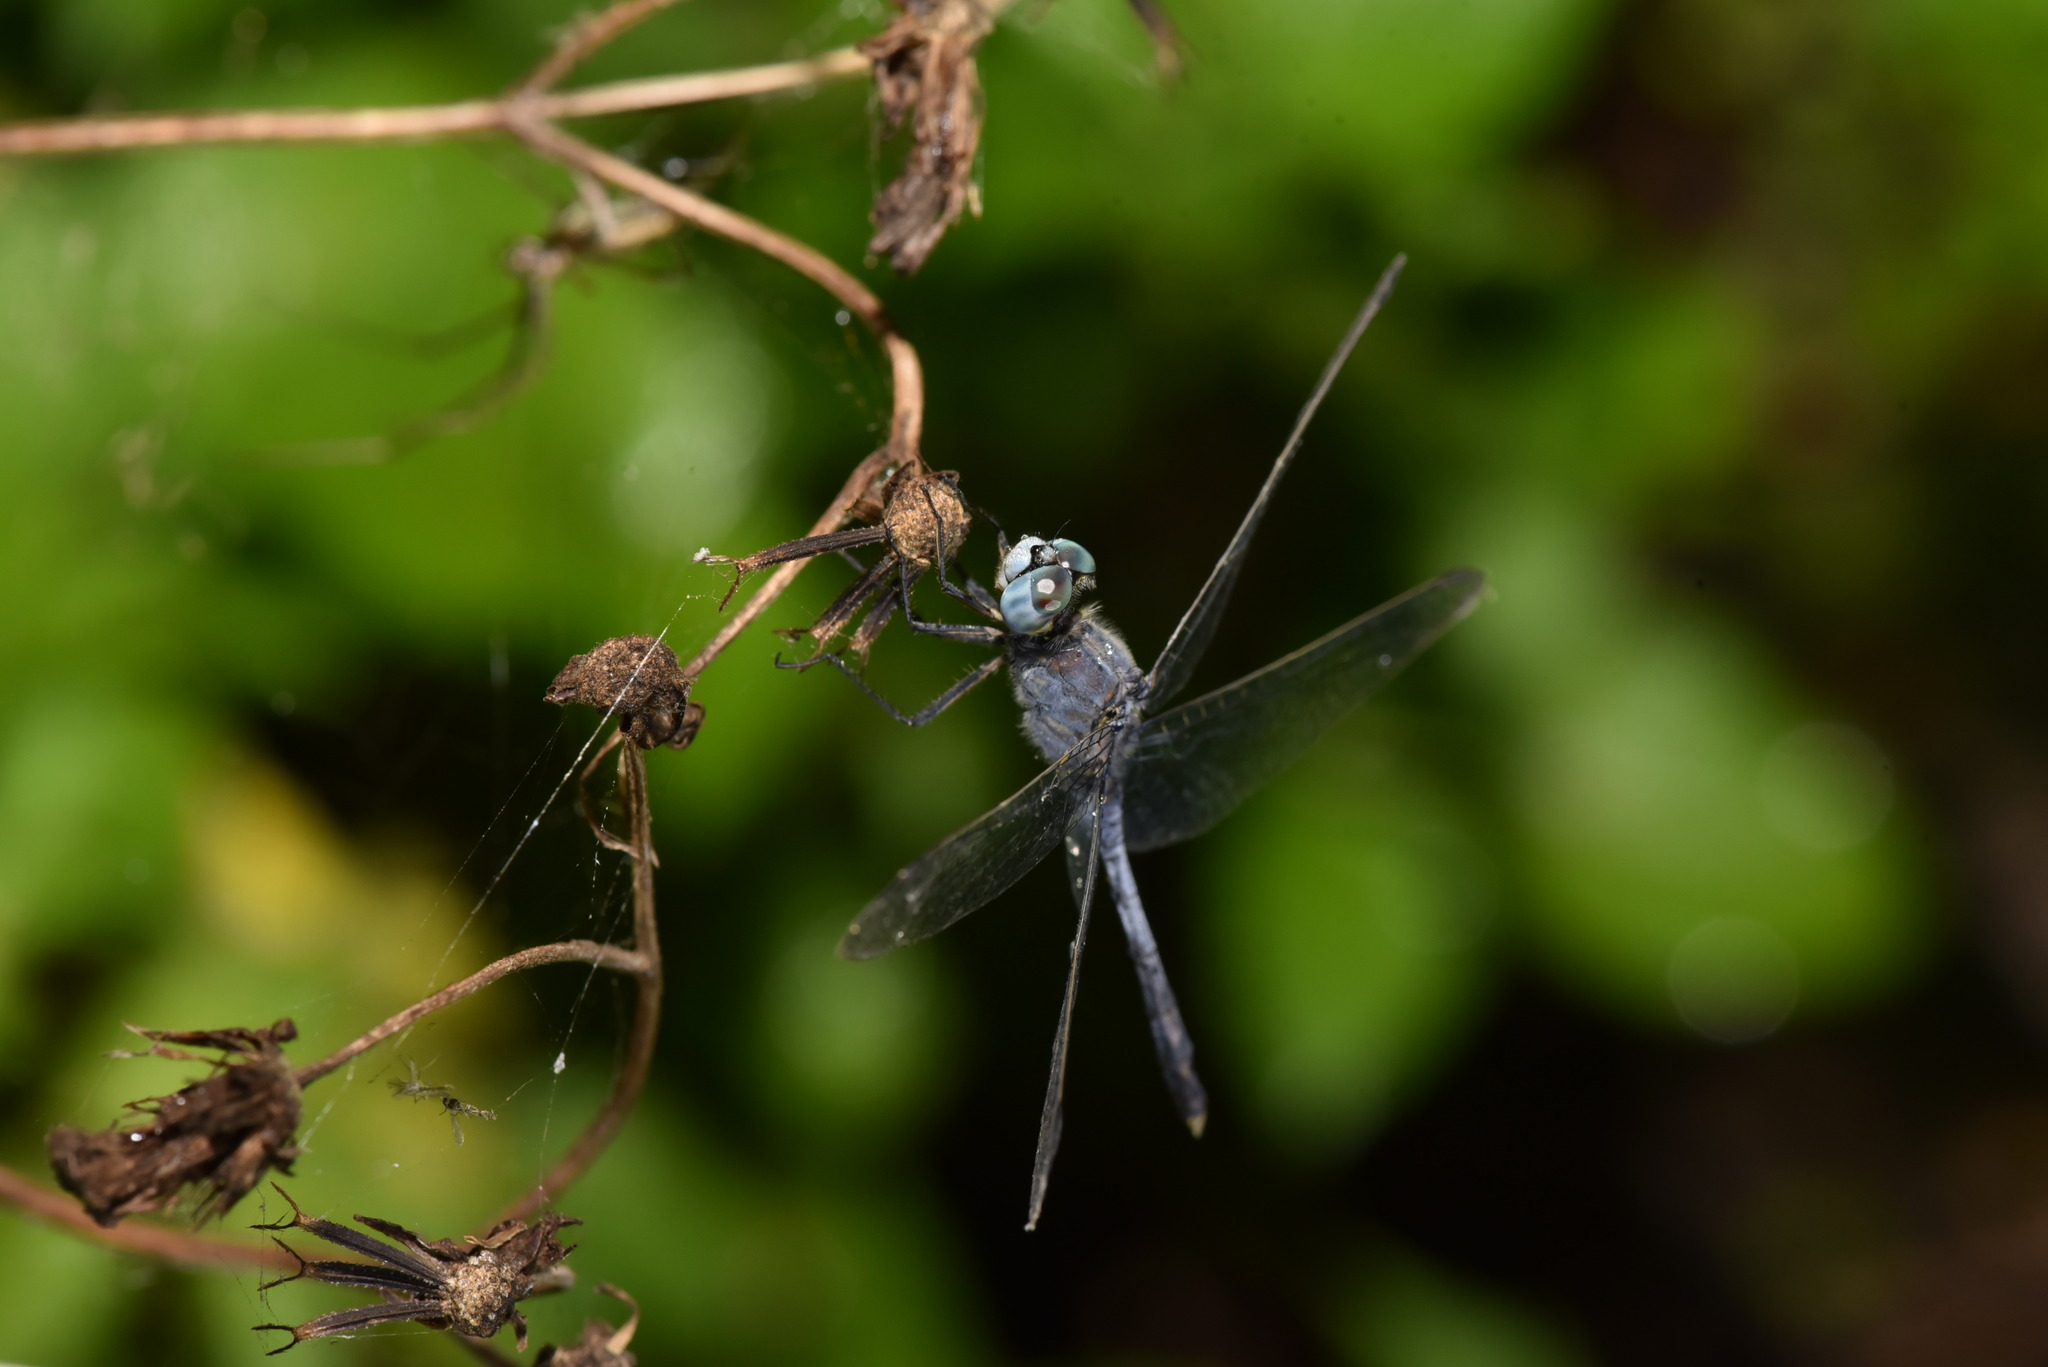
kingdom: Animalia
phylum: Arthropoda
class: Insecta
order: Odonata
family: Libellulidae
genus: Diplacodes
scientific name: Diplacodes trivialis
